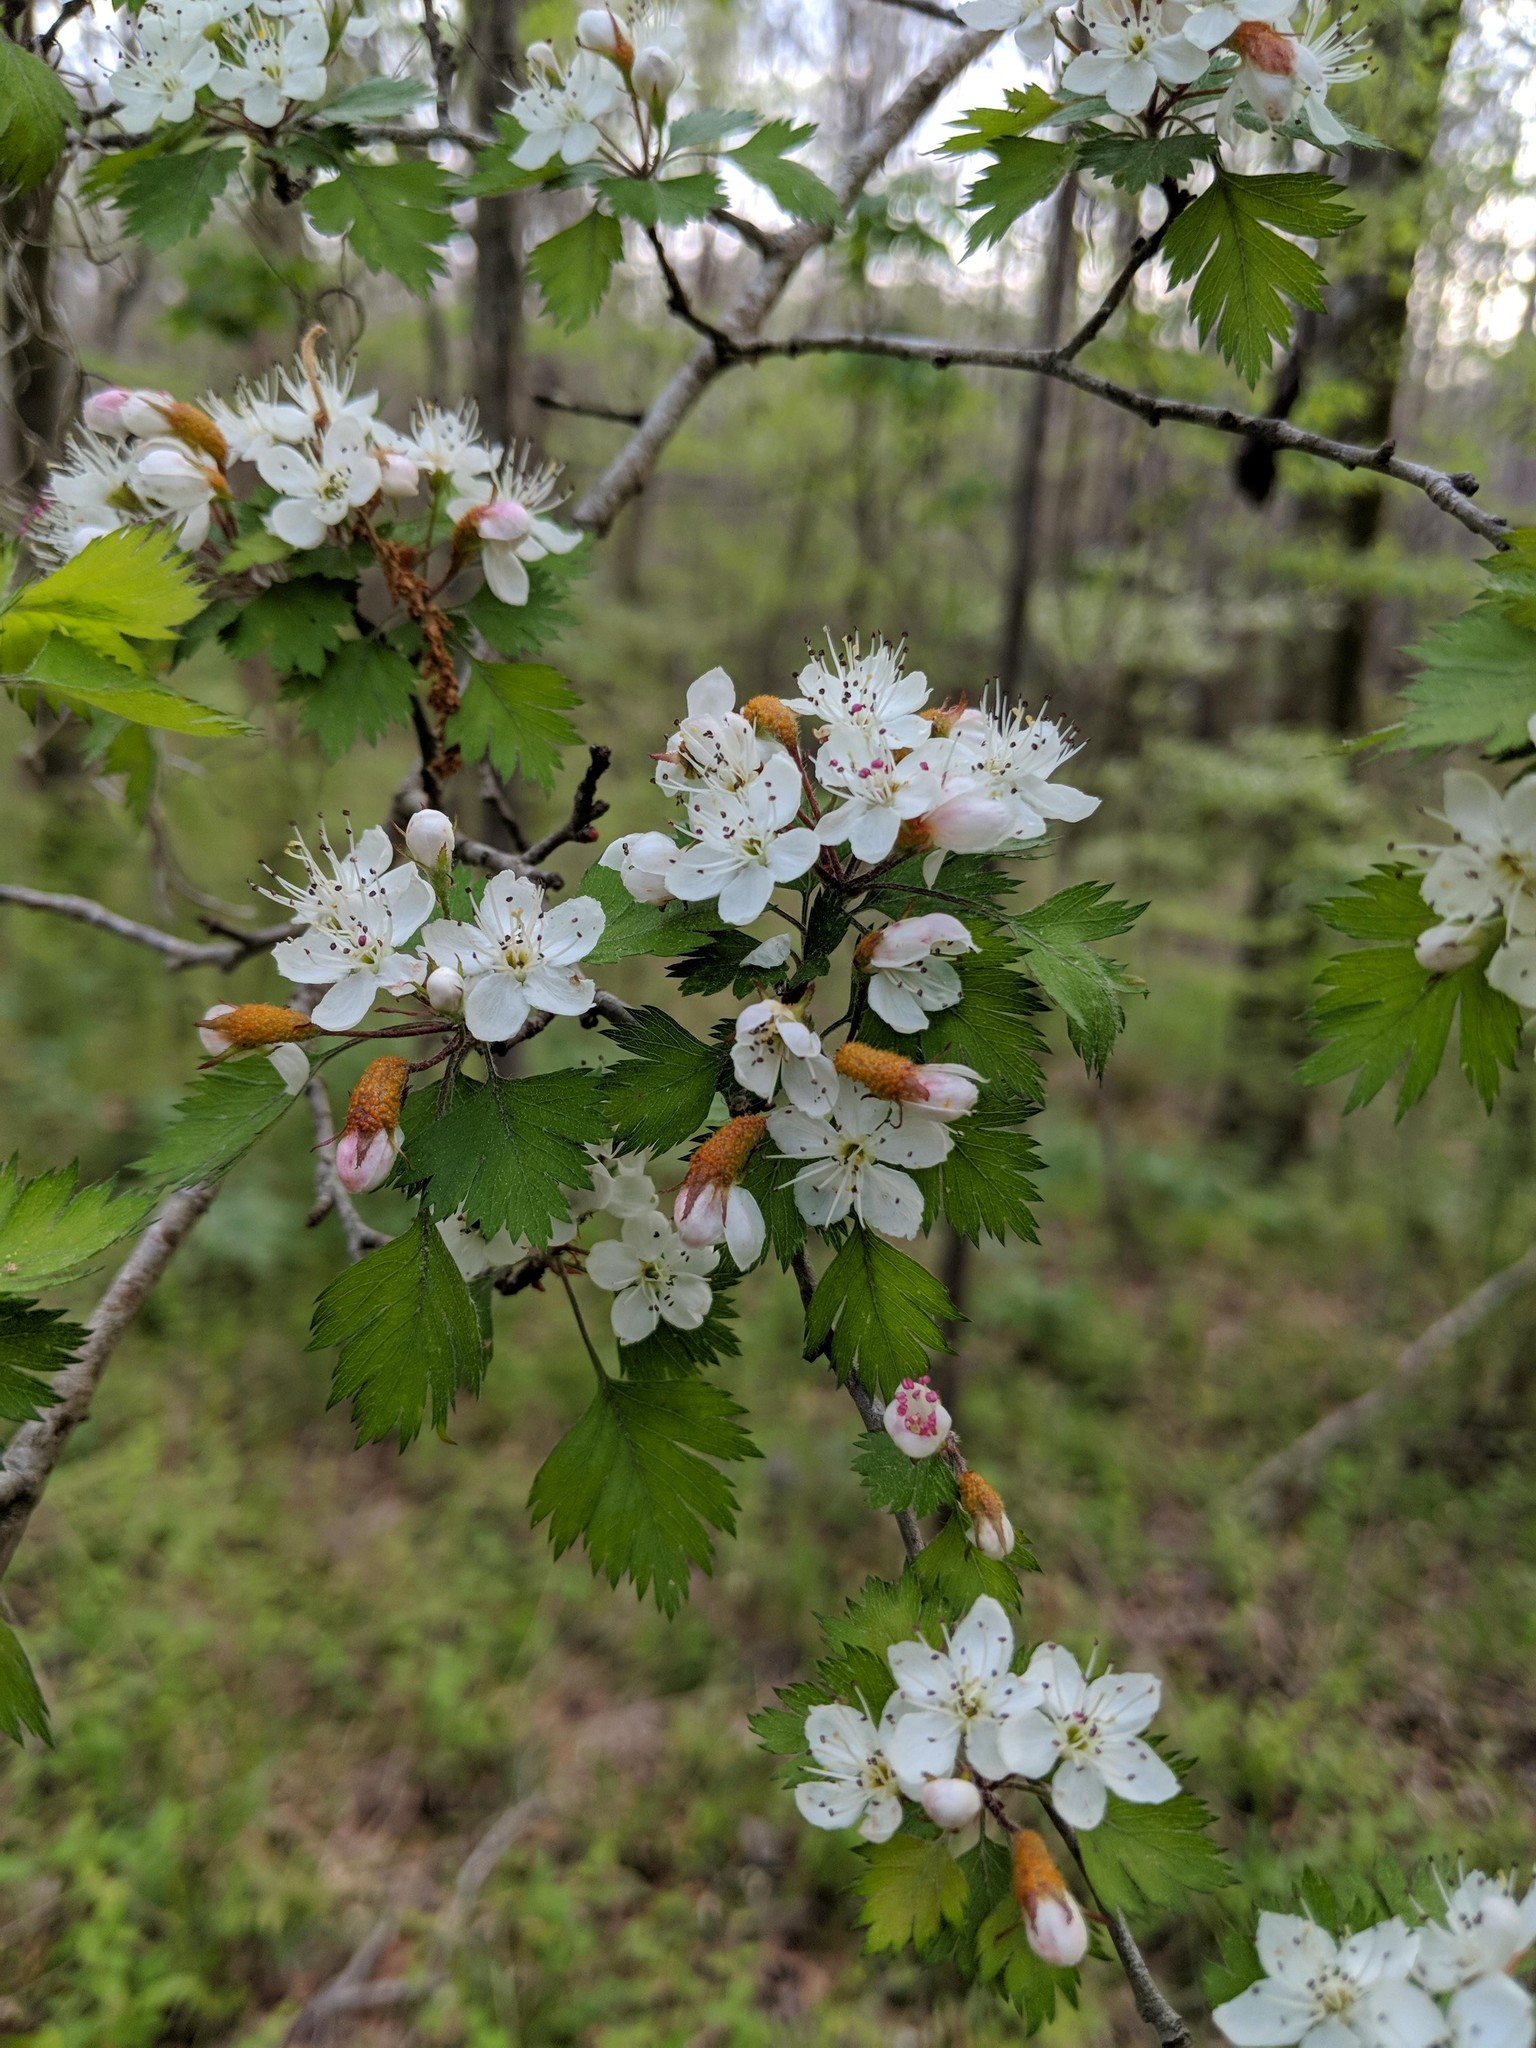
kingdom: Plantae
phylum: Tracheophyta
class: Magnoliopsida
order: Rosales
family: Rosaceae
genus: Crataegus
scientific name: Crataegus marshallii
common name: Parsley-hawthorn
